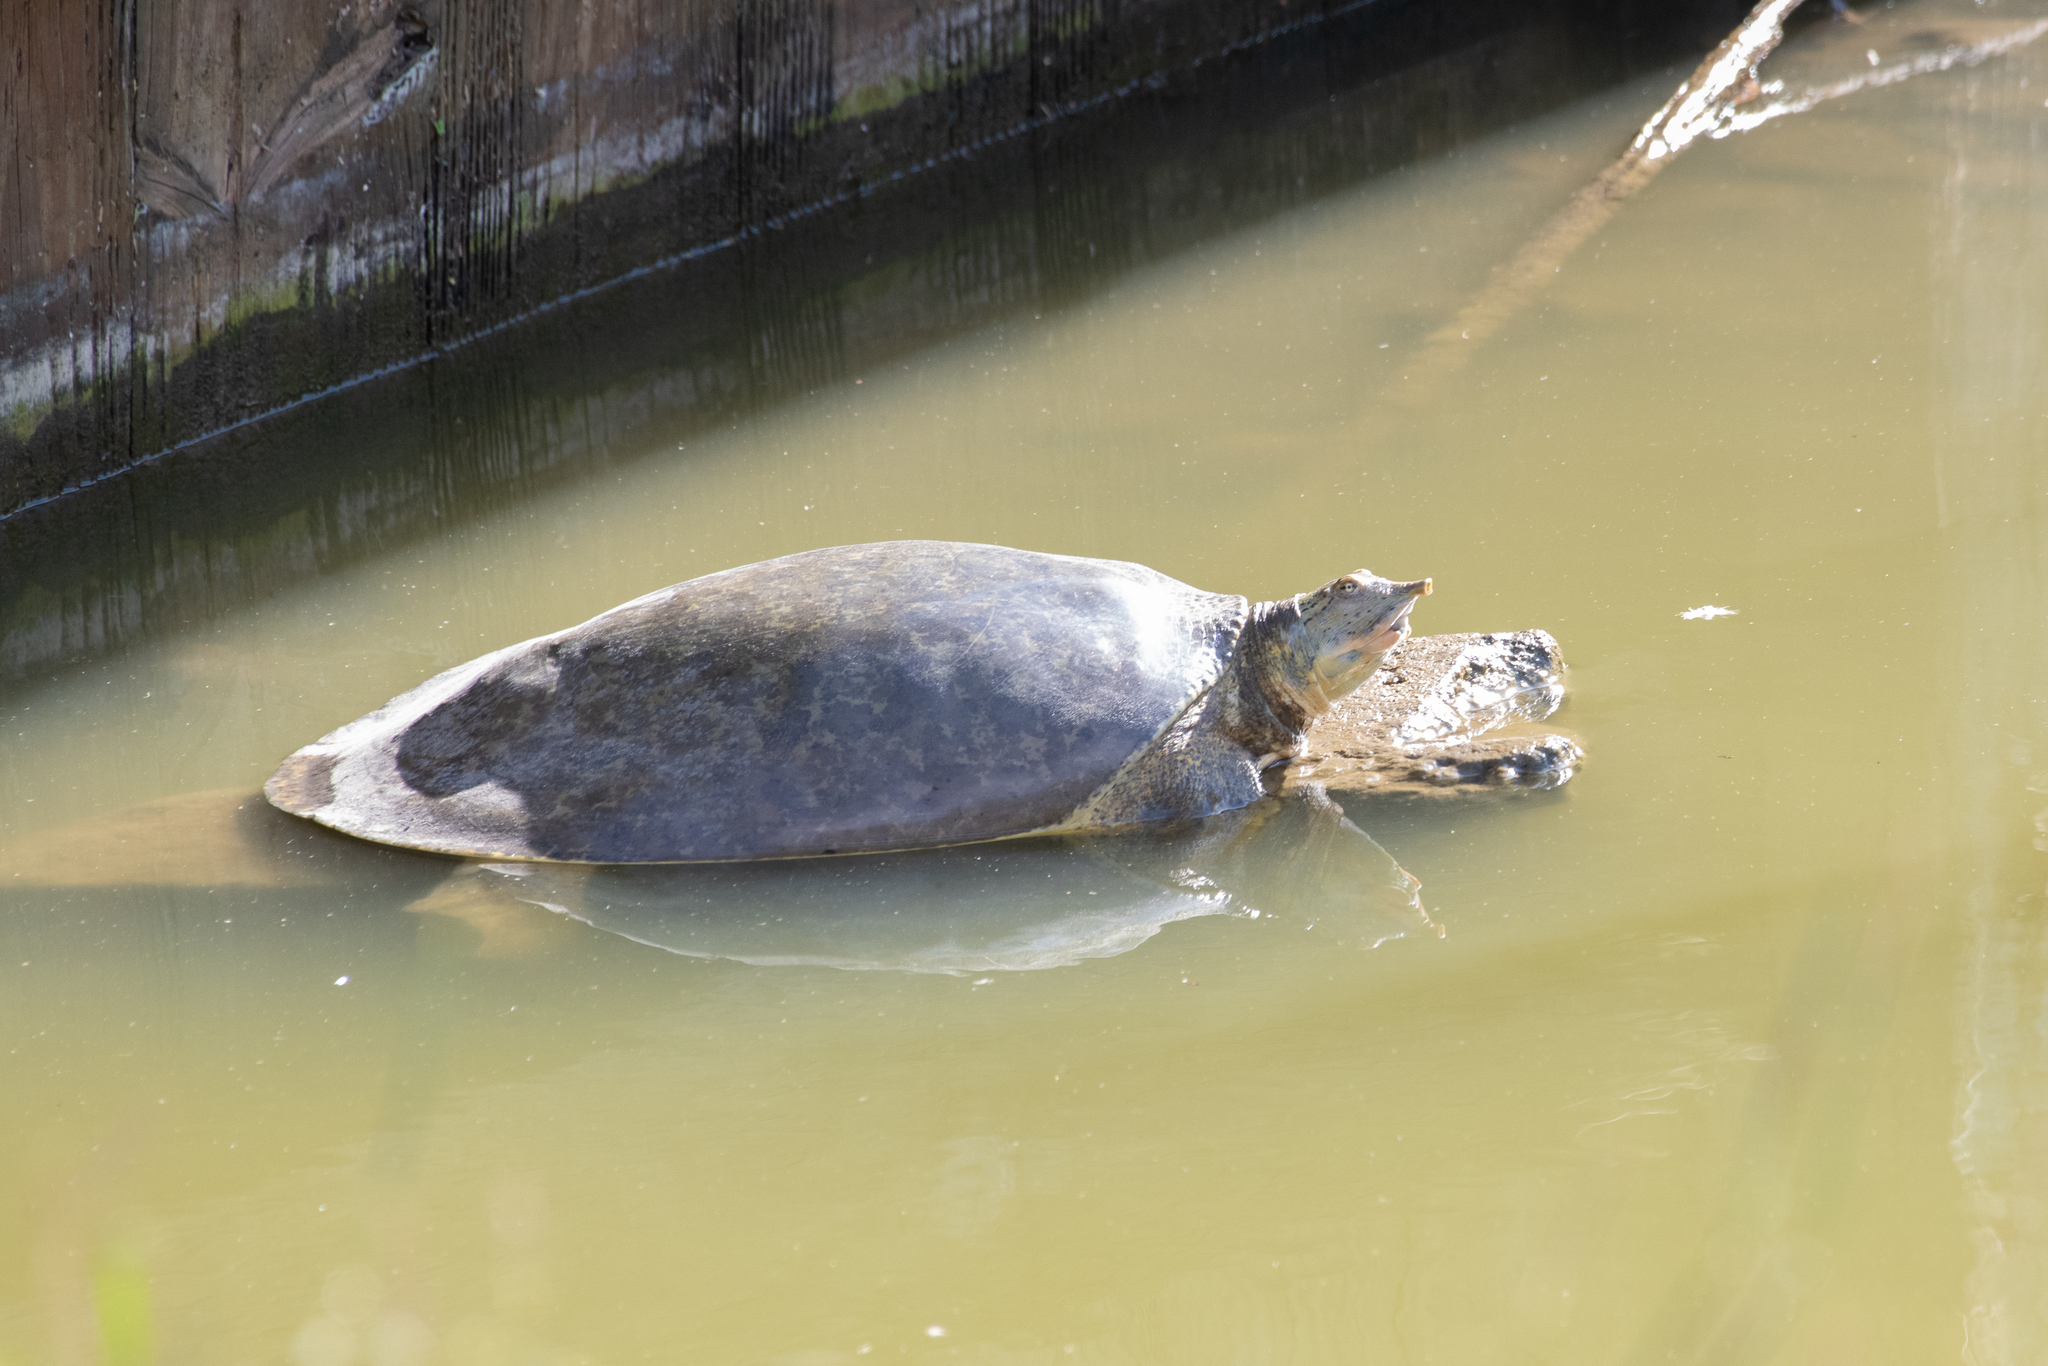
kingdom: Animalia
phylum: Chordata
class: Testudines
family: Trionychidae
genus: Apalone
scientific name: Apalone spinifera
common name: Spiny softshell turtle
